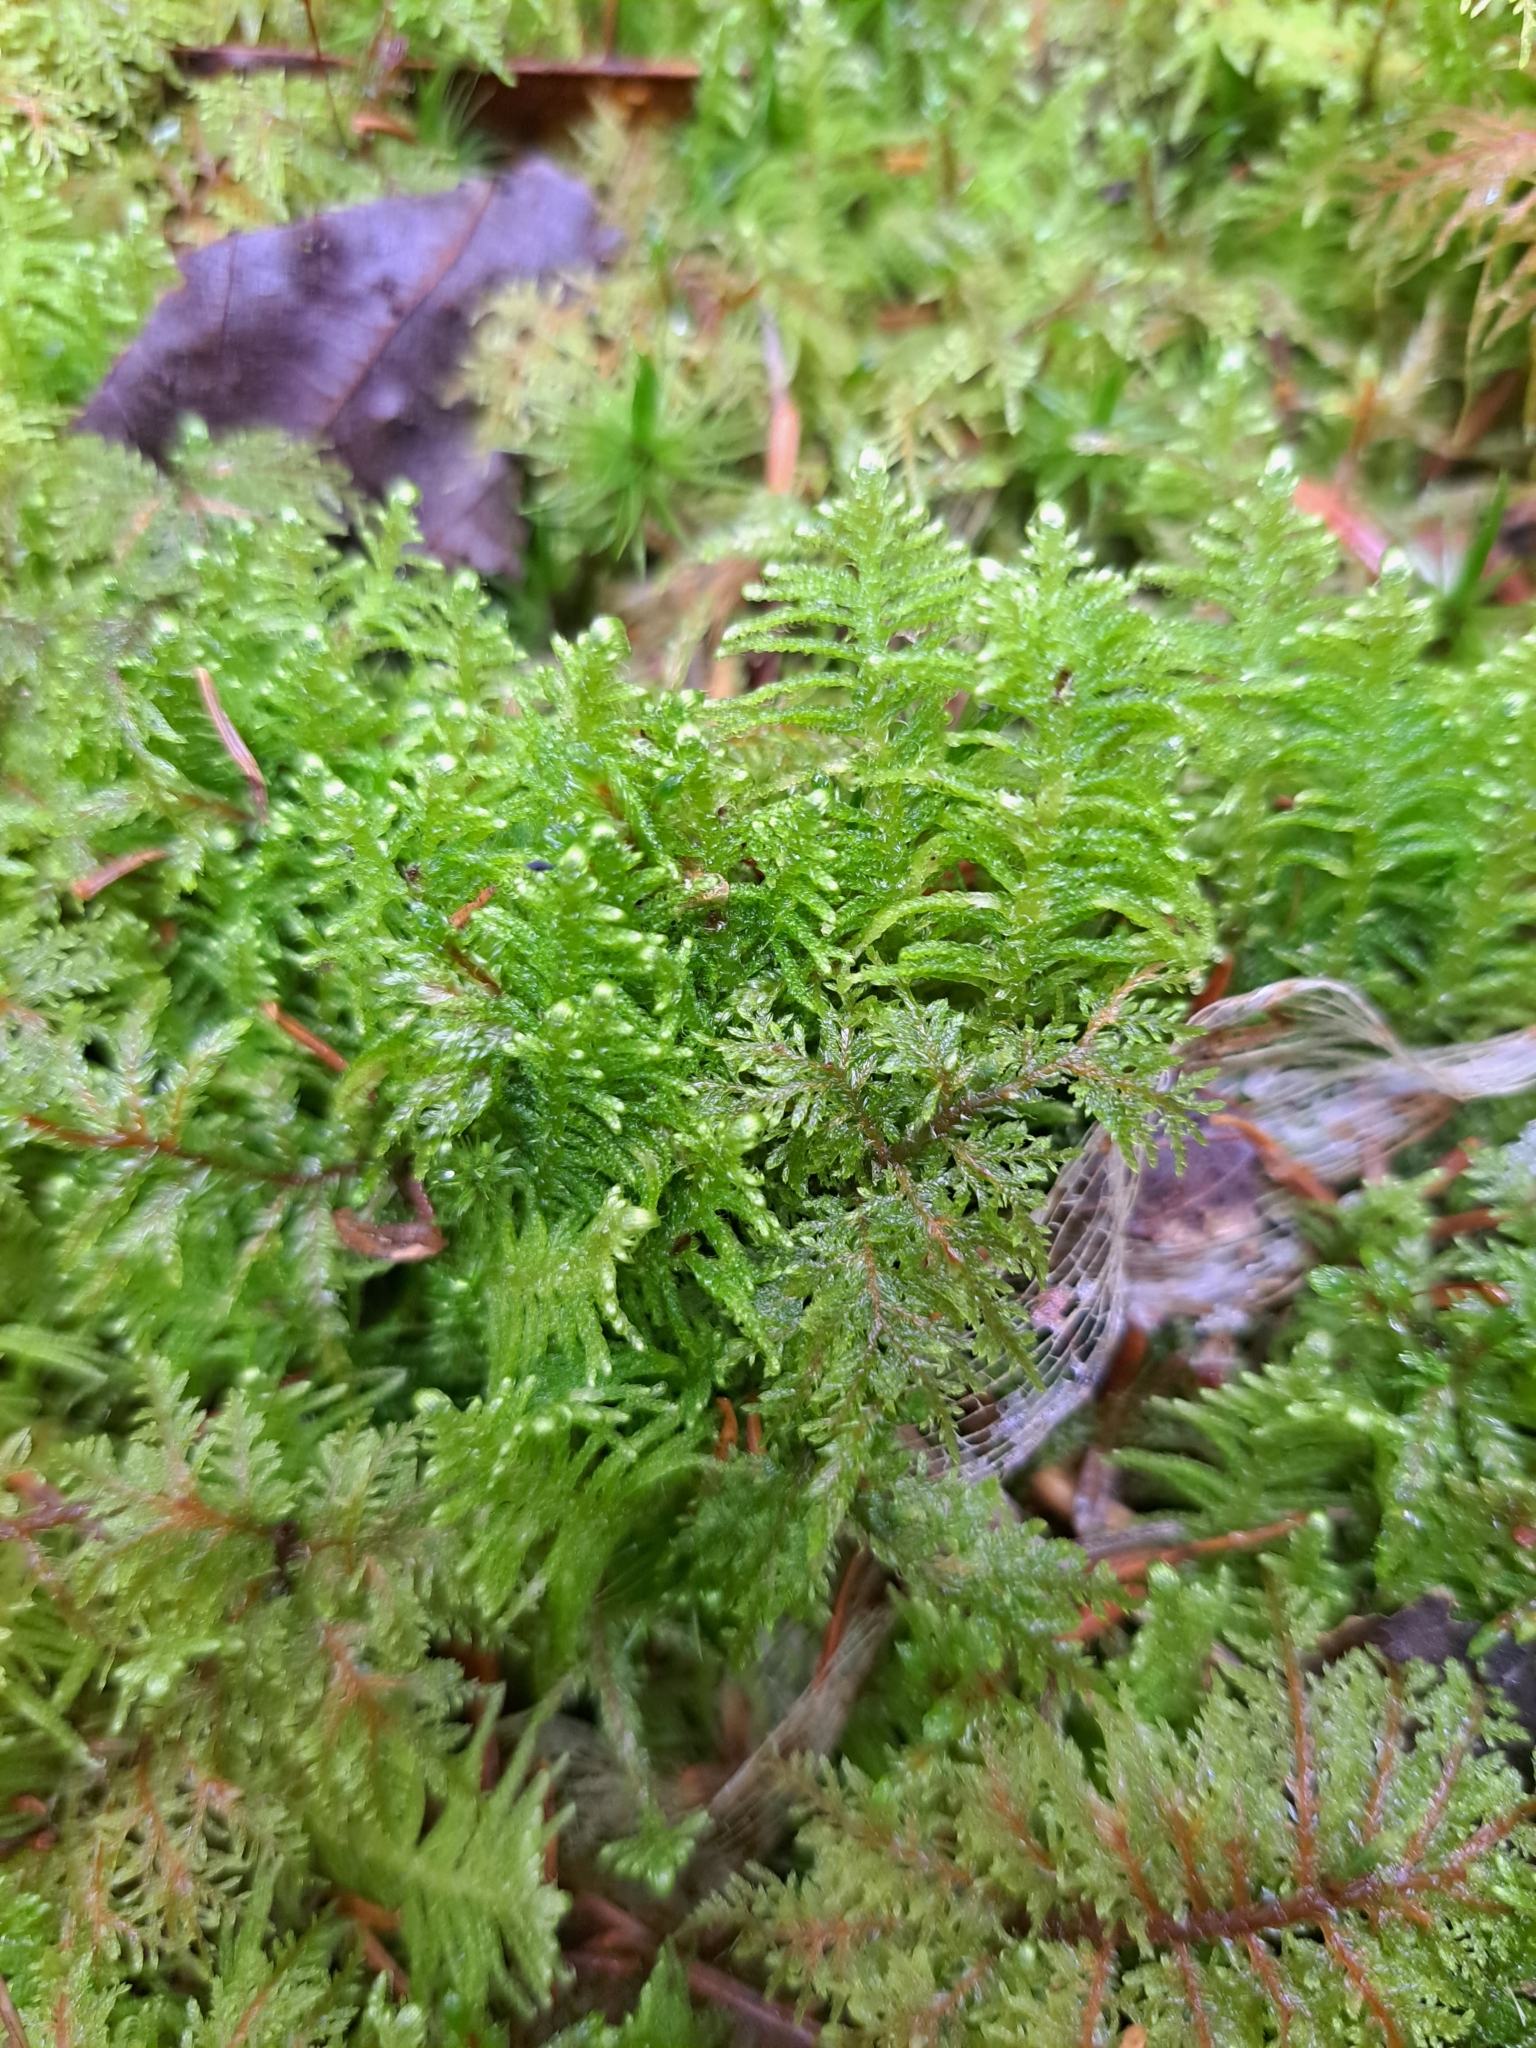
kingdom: Plantae
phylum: Bryophyta
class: Bryopsida
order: Hypnales
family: Pylaisiaceae
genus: Ptilium
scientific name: Ptilium crista-castrensis
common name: Knight's plume moss
